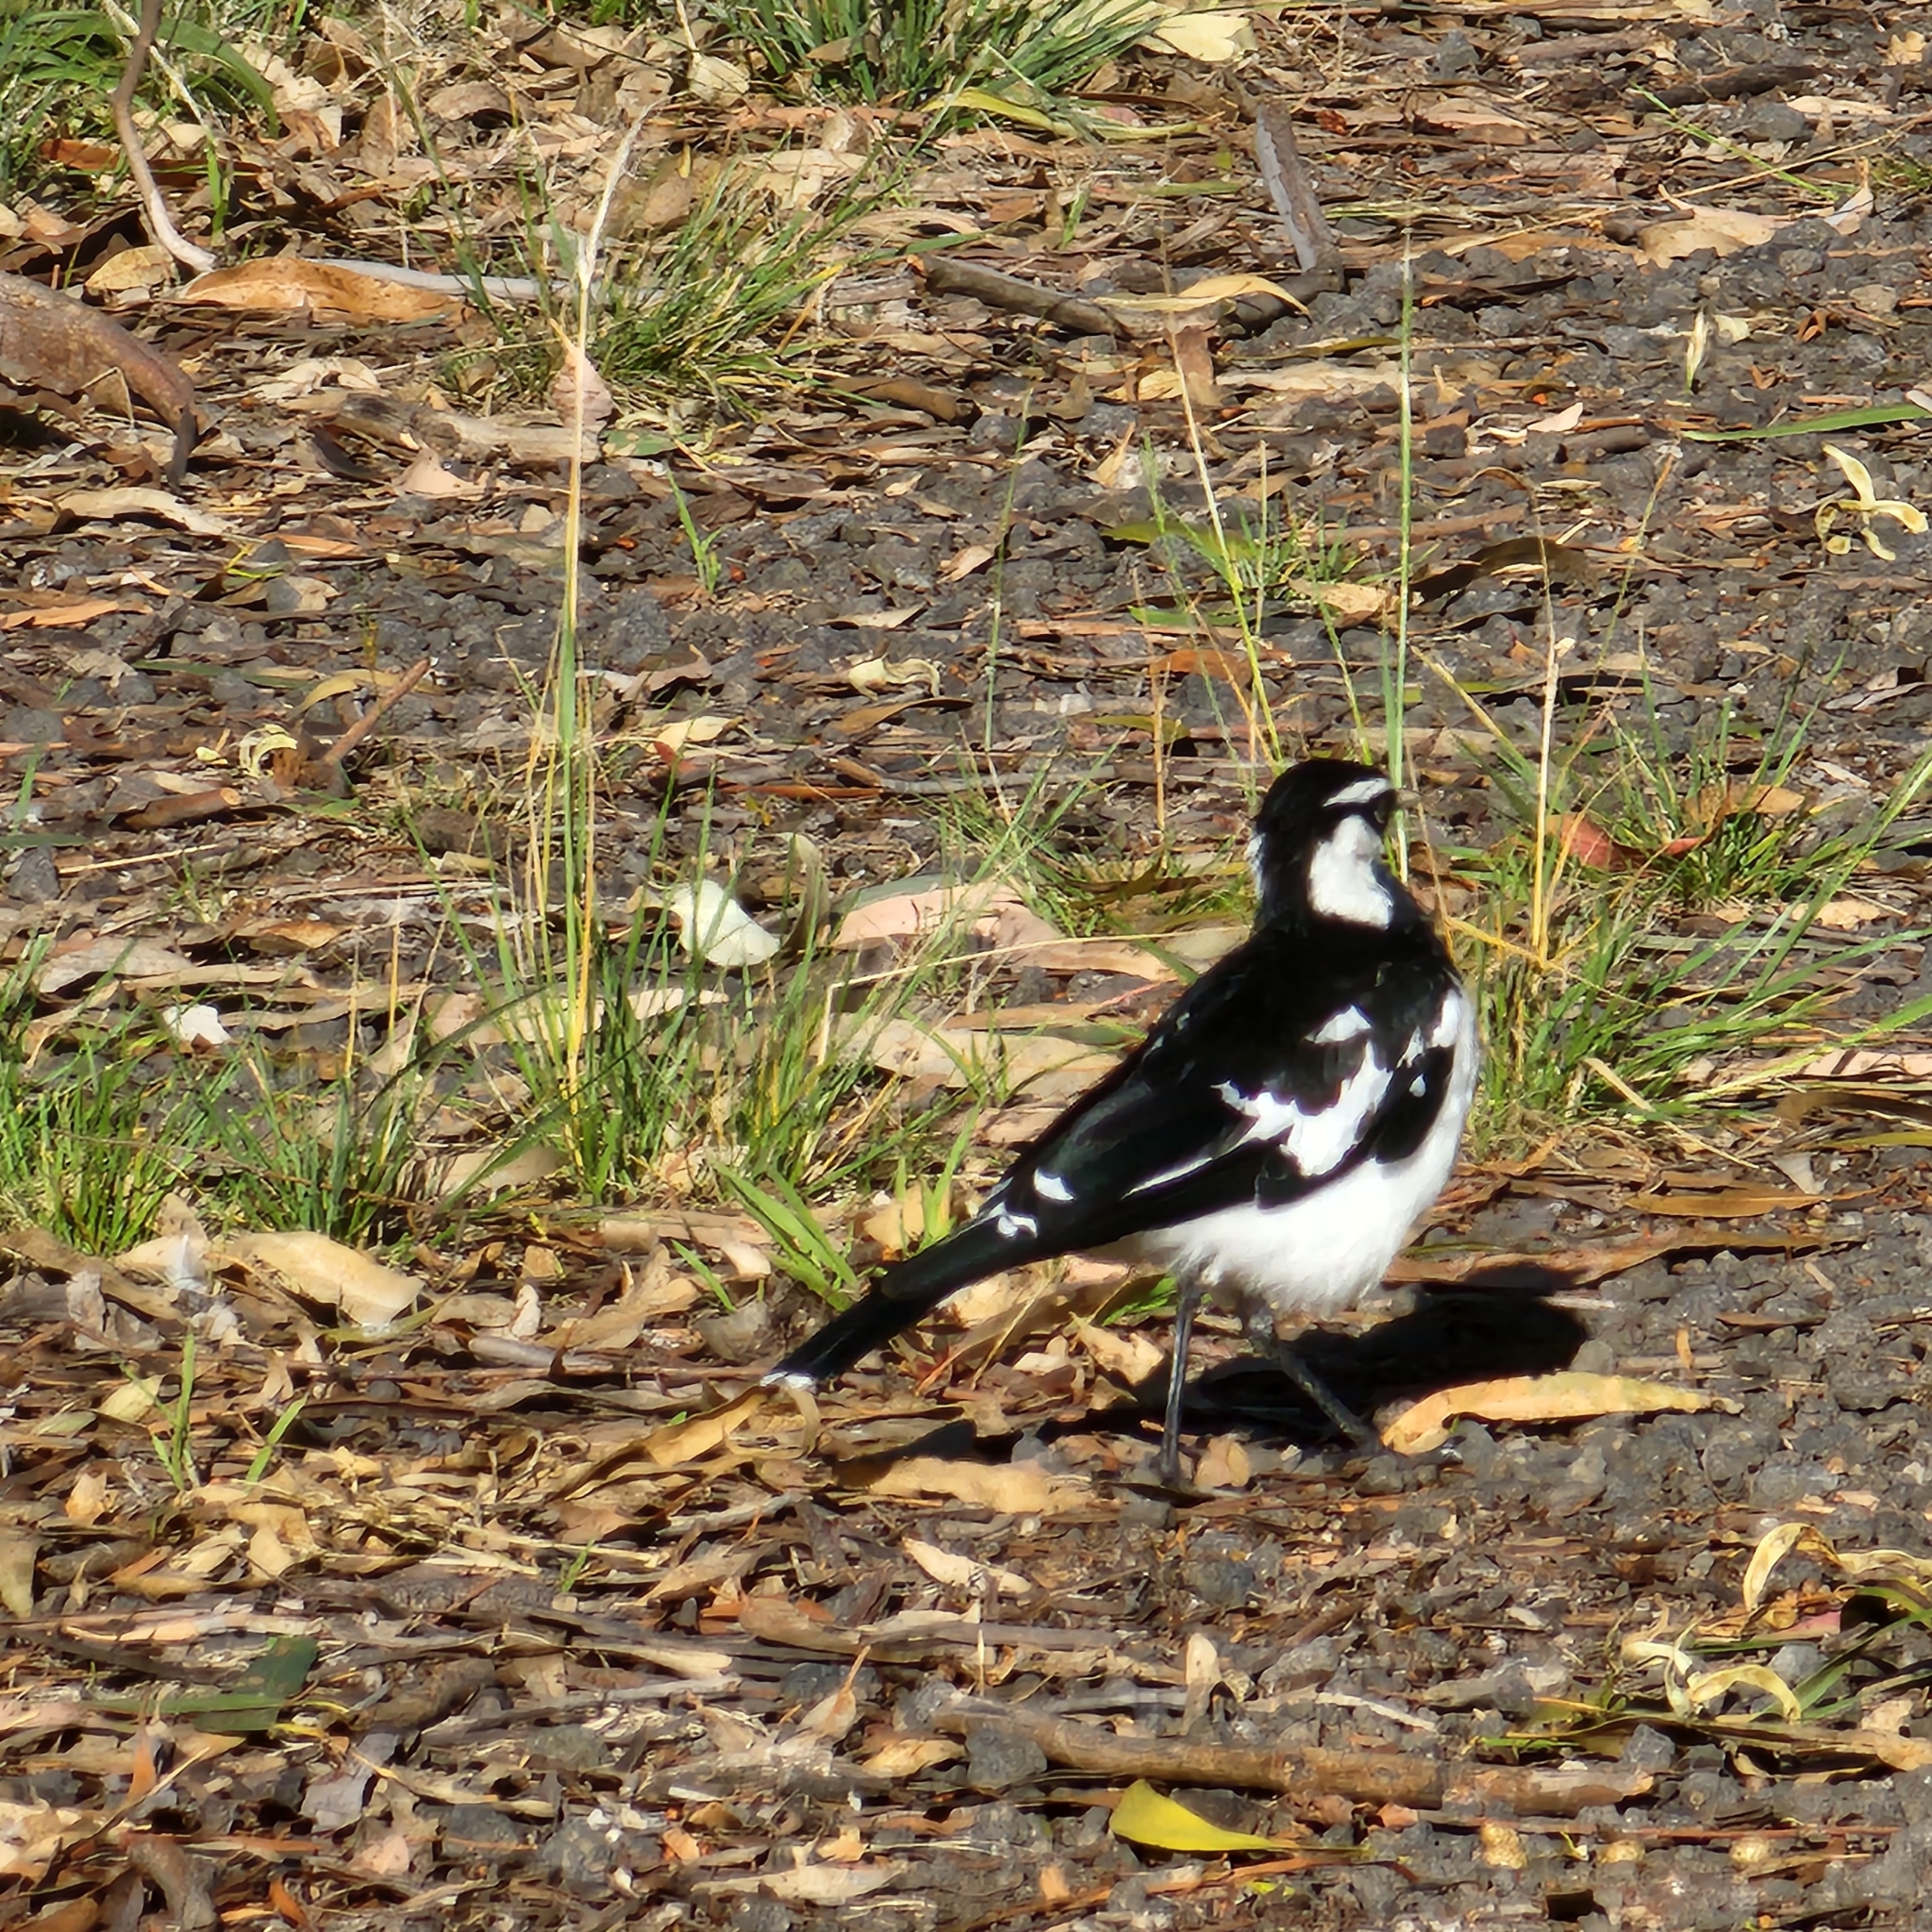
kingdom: Animalia
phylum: Chordata
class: Aves
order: Passeriformes
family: Monarchidae
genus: Grallina
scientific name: Grallina cyanoleuca
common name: Magpie-lark
